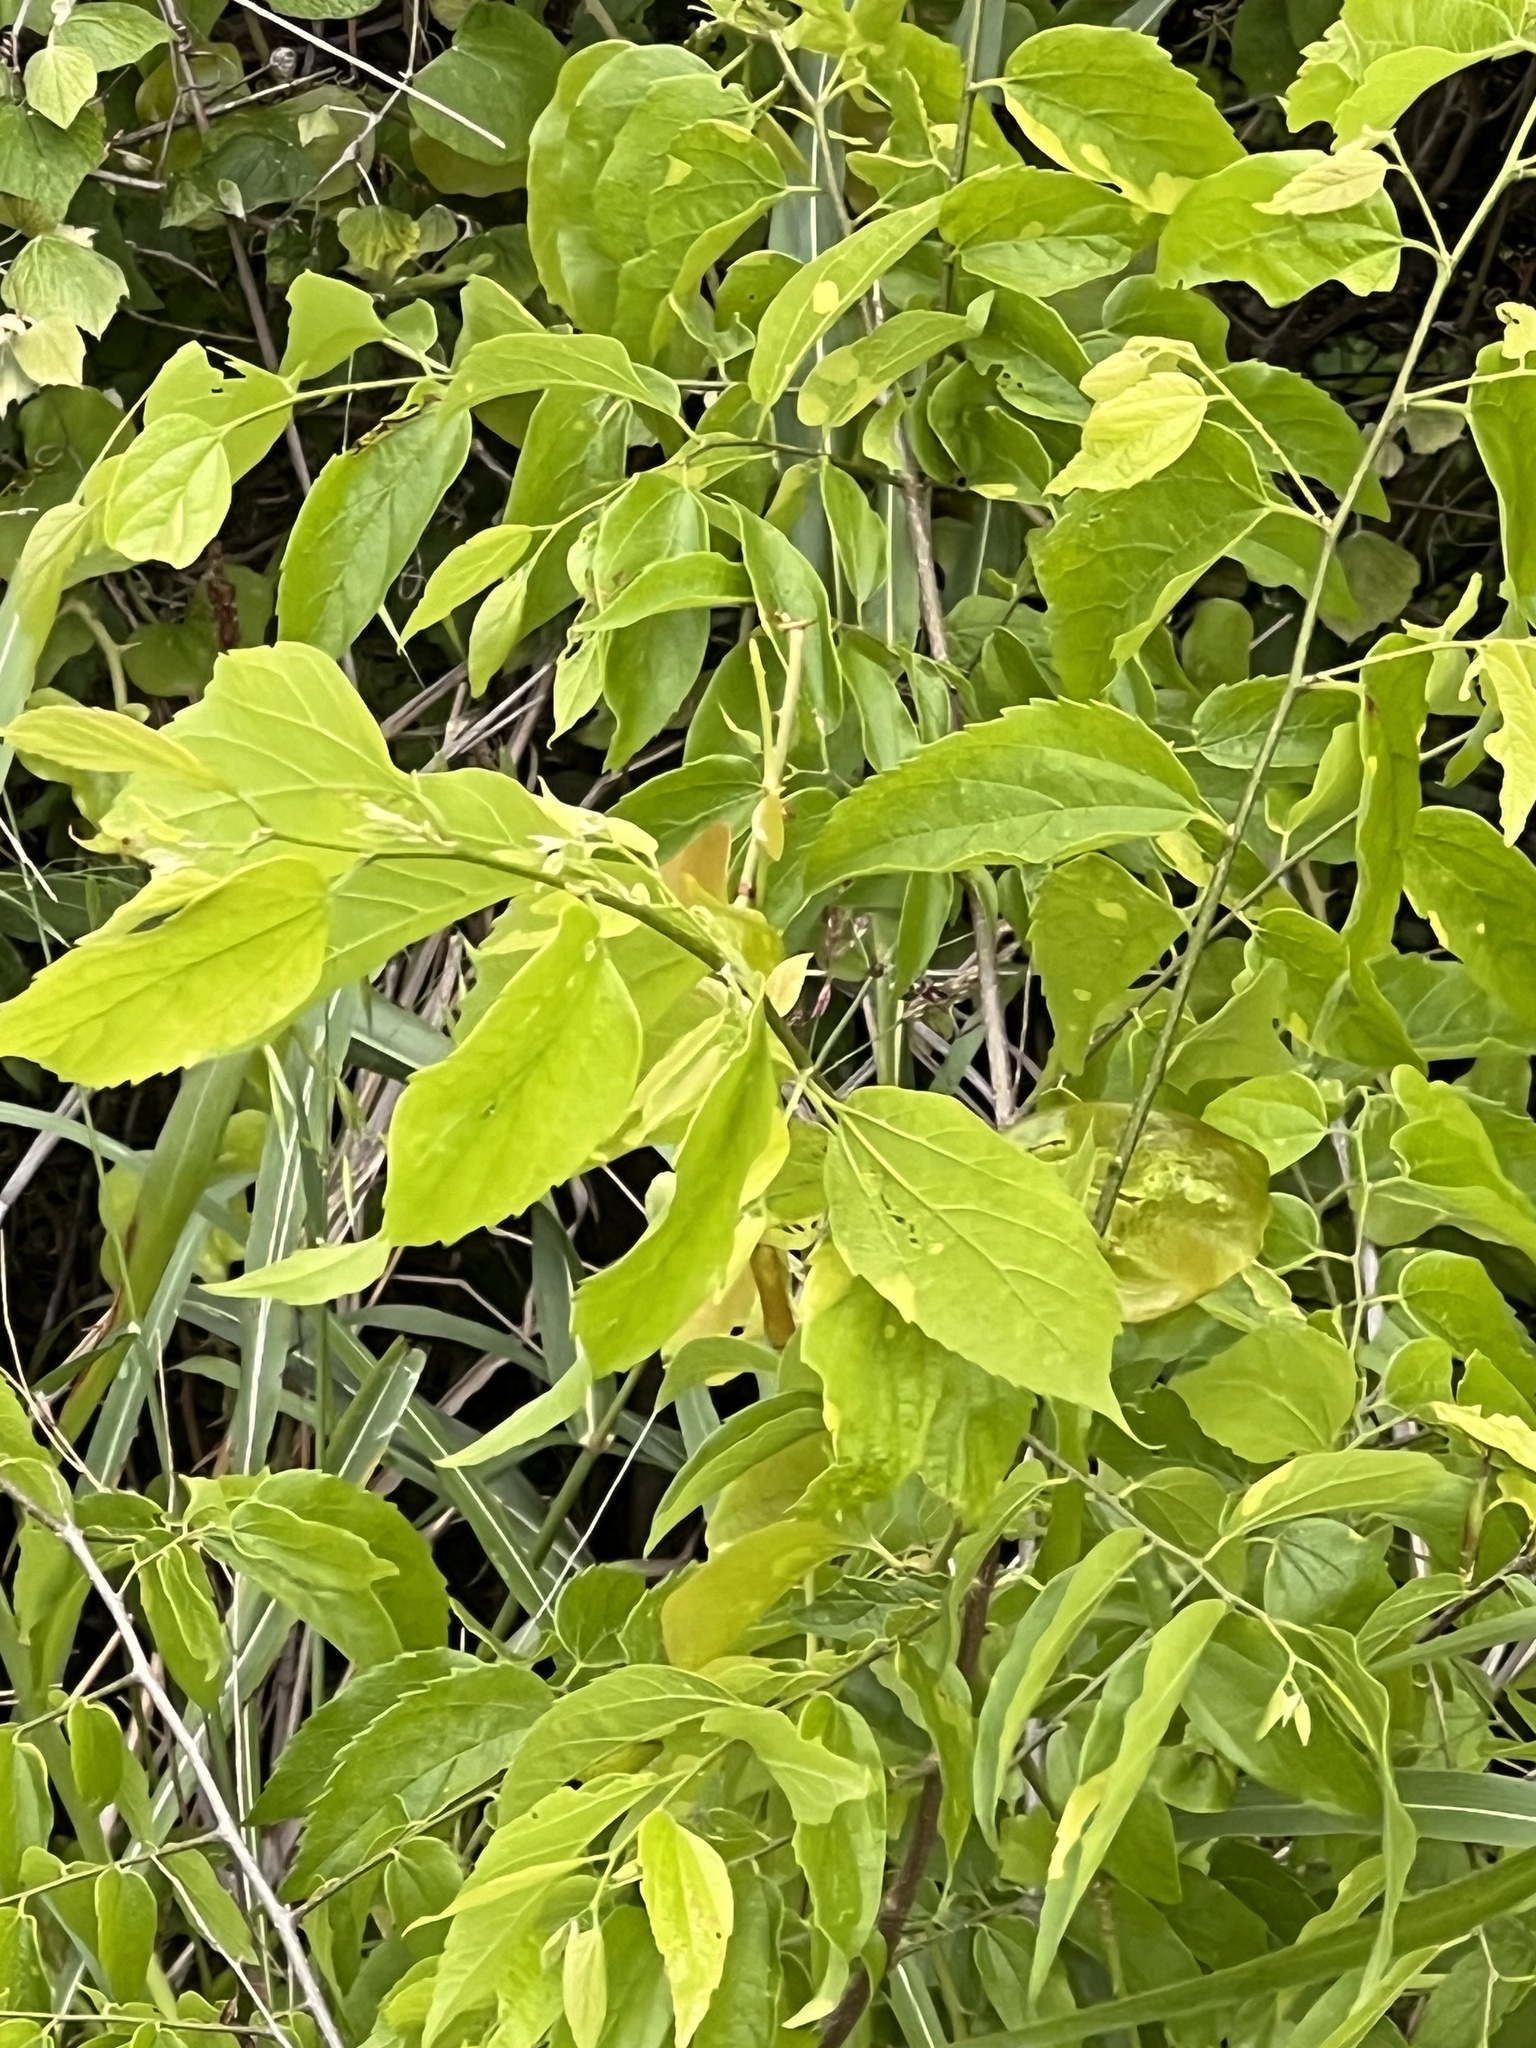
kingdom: Plantae
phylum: Tracheophyta
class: Magnoliopsida
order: Rosales
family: Cannabaceae
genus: Celtis
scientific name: Celtis laevigata
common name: Sugarberry
